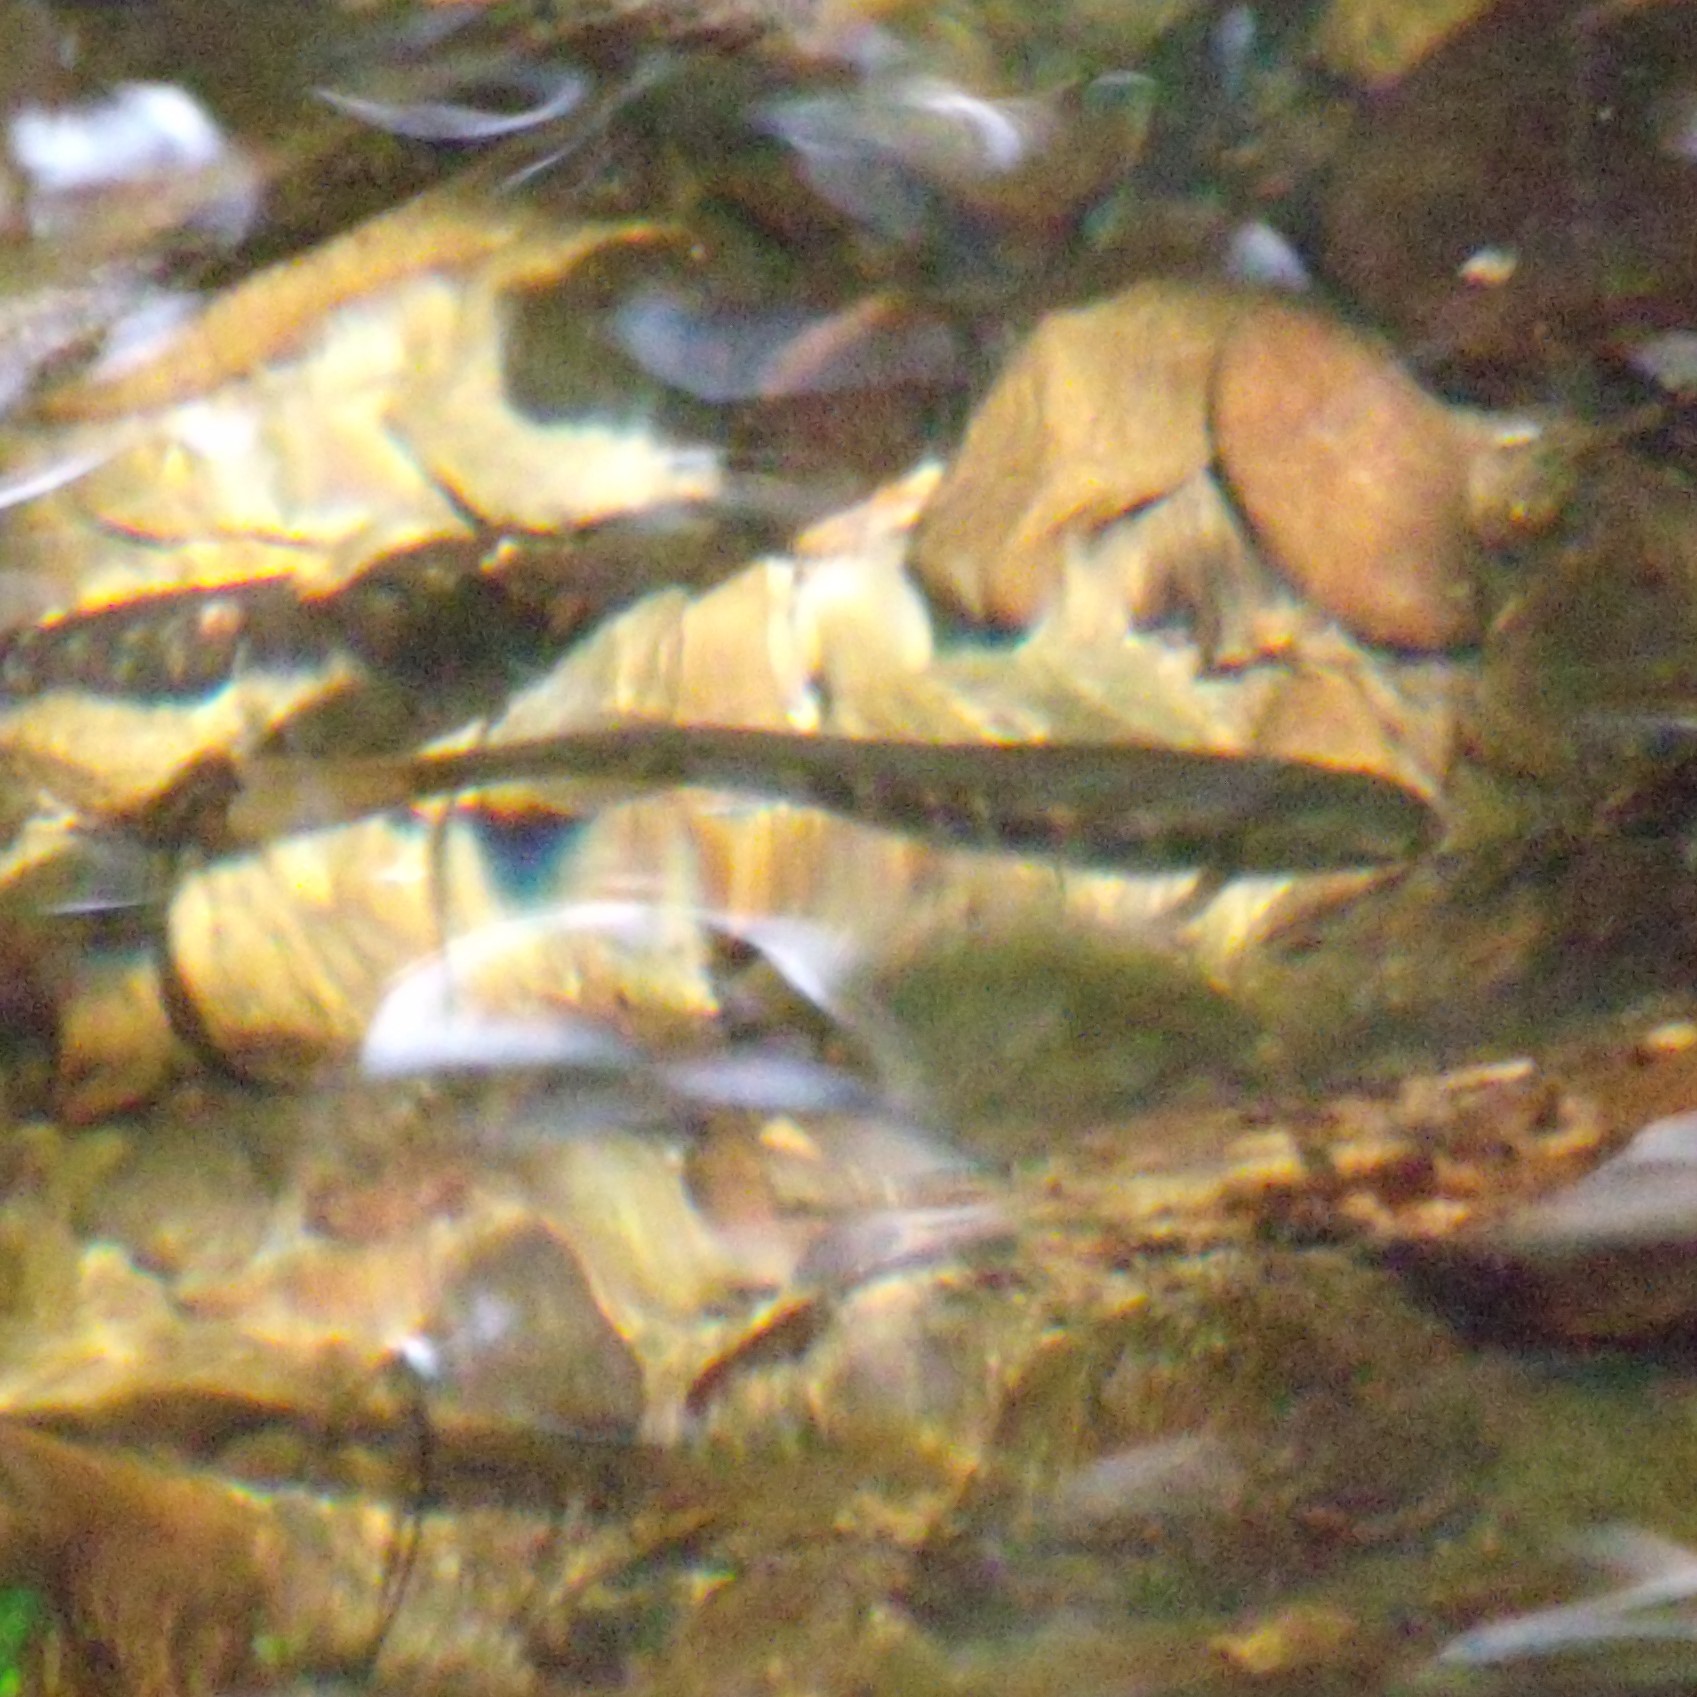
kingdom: Animalia
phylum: Chordata
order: Osmeriformes
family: Galaxiidae
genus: Galaxias
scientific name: Galaxias fasciatus
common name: Banded kokopu
